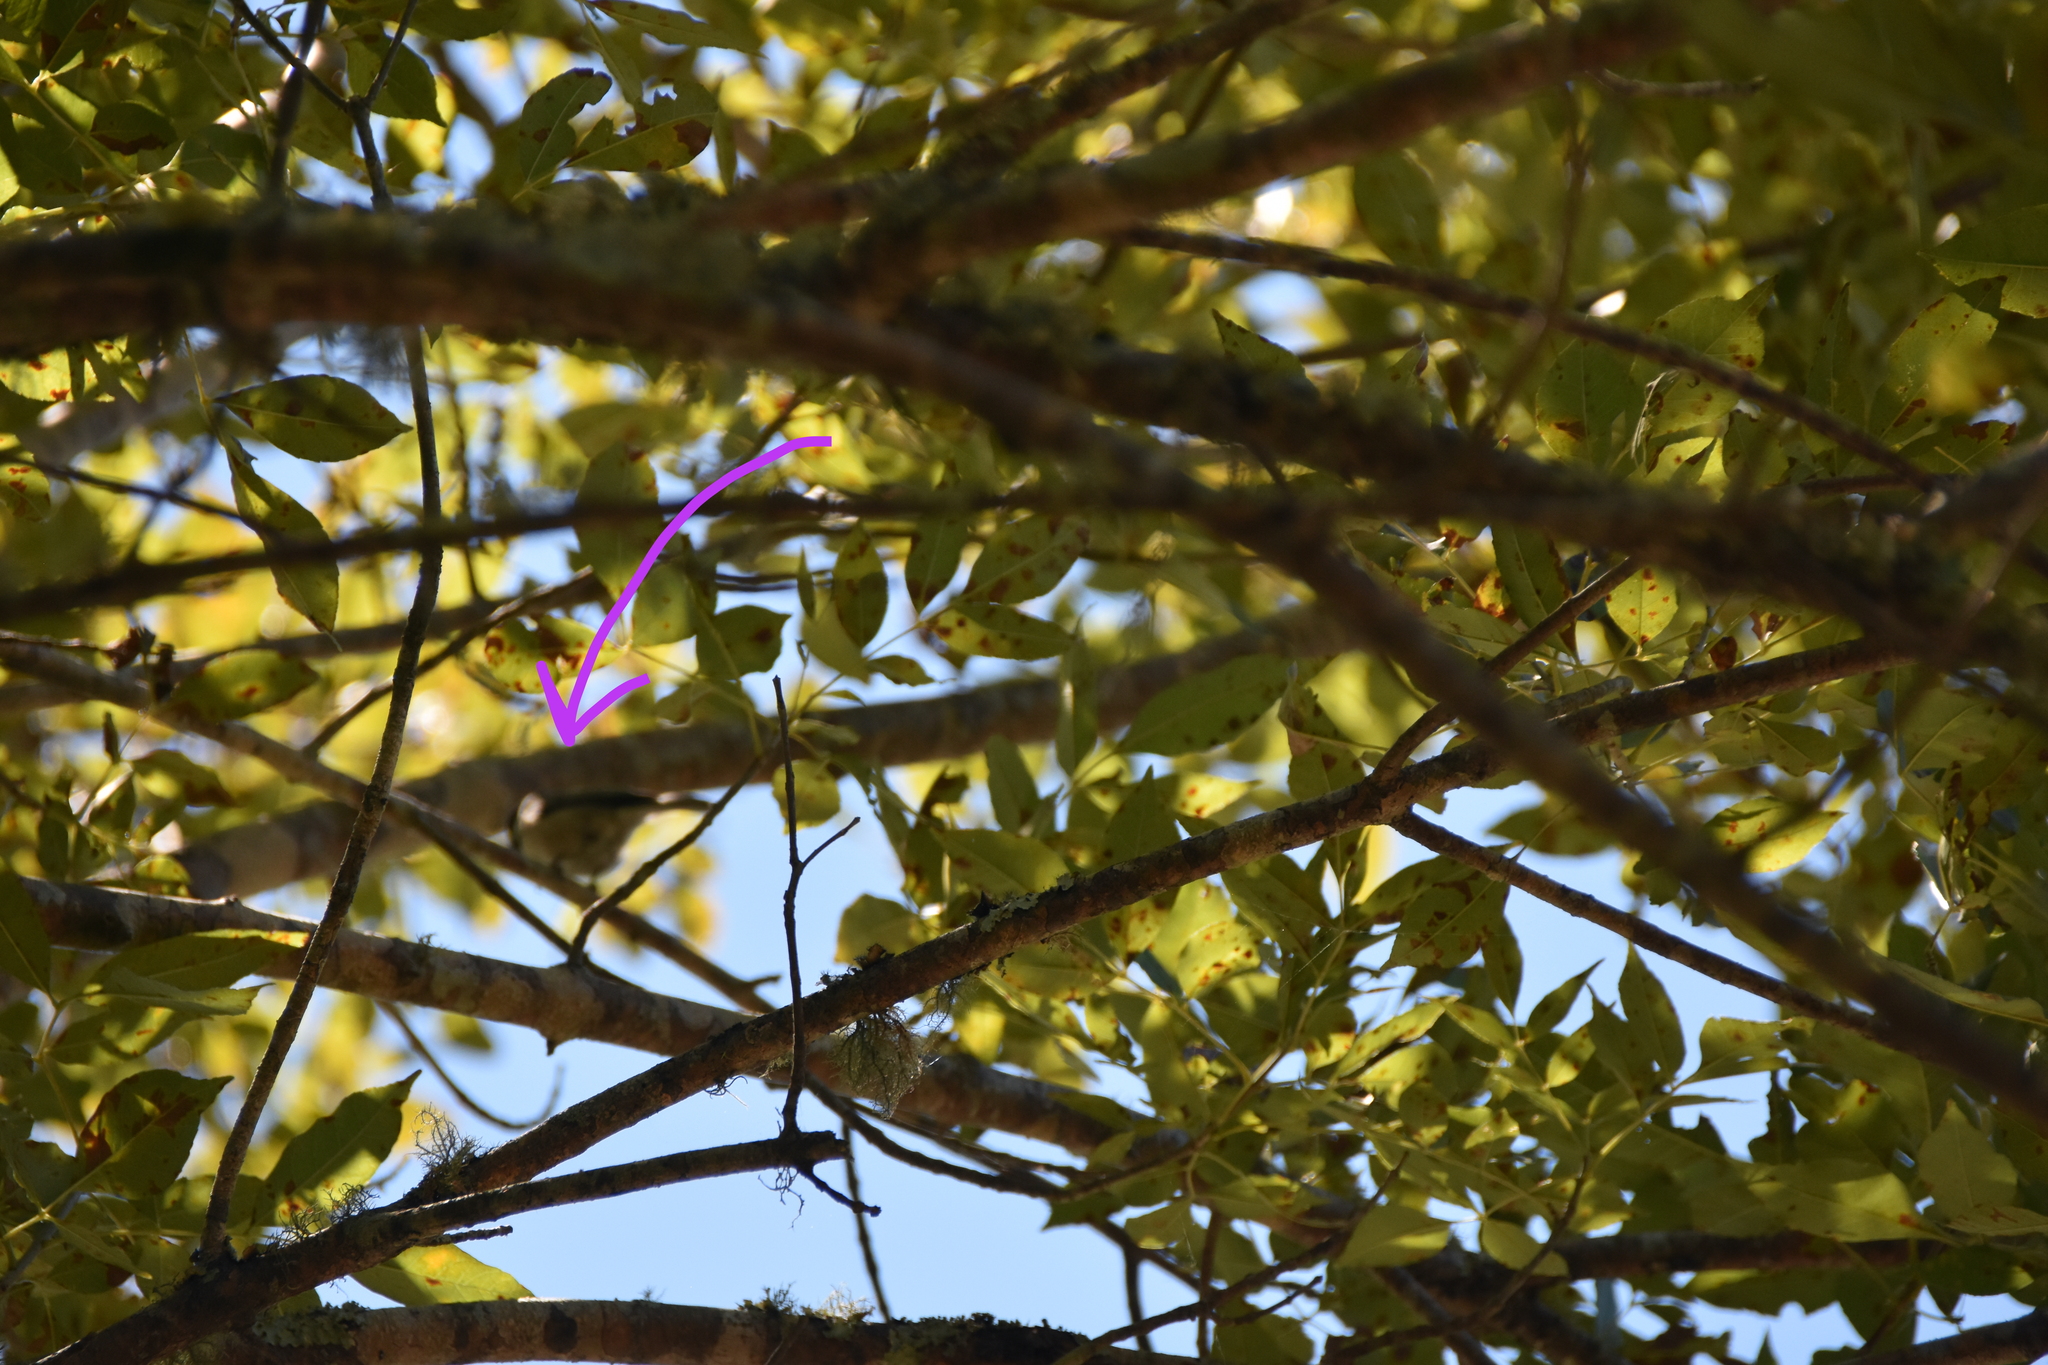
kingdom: Animalia
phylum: Chordata
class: Aves
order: Passeriformes
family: Paridae
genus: Poecile
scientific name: Poecile carolinensis
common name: Carolina chickadee
